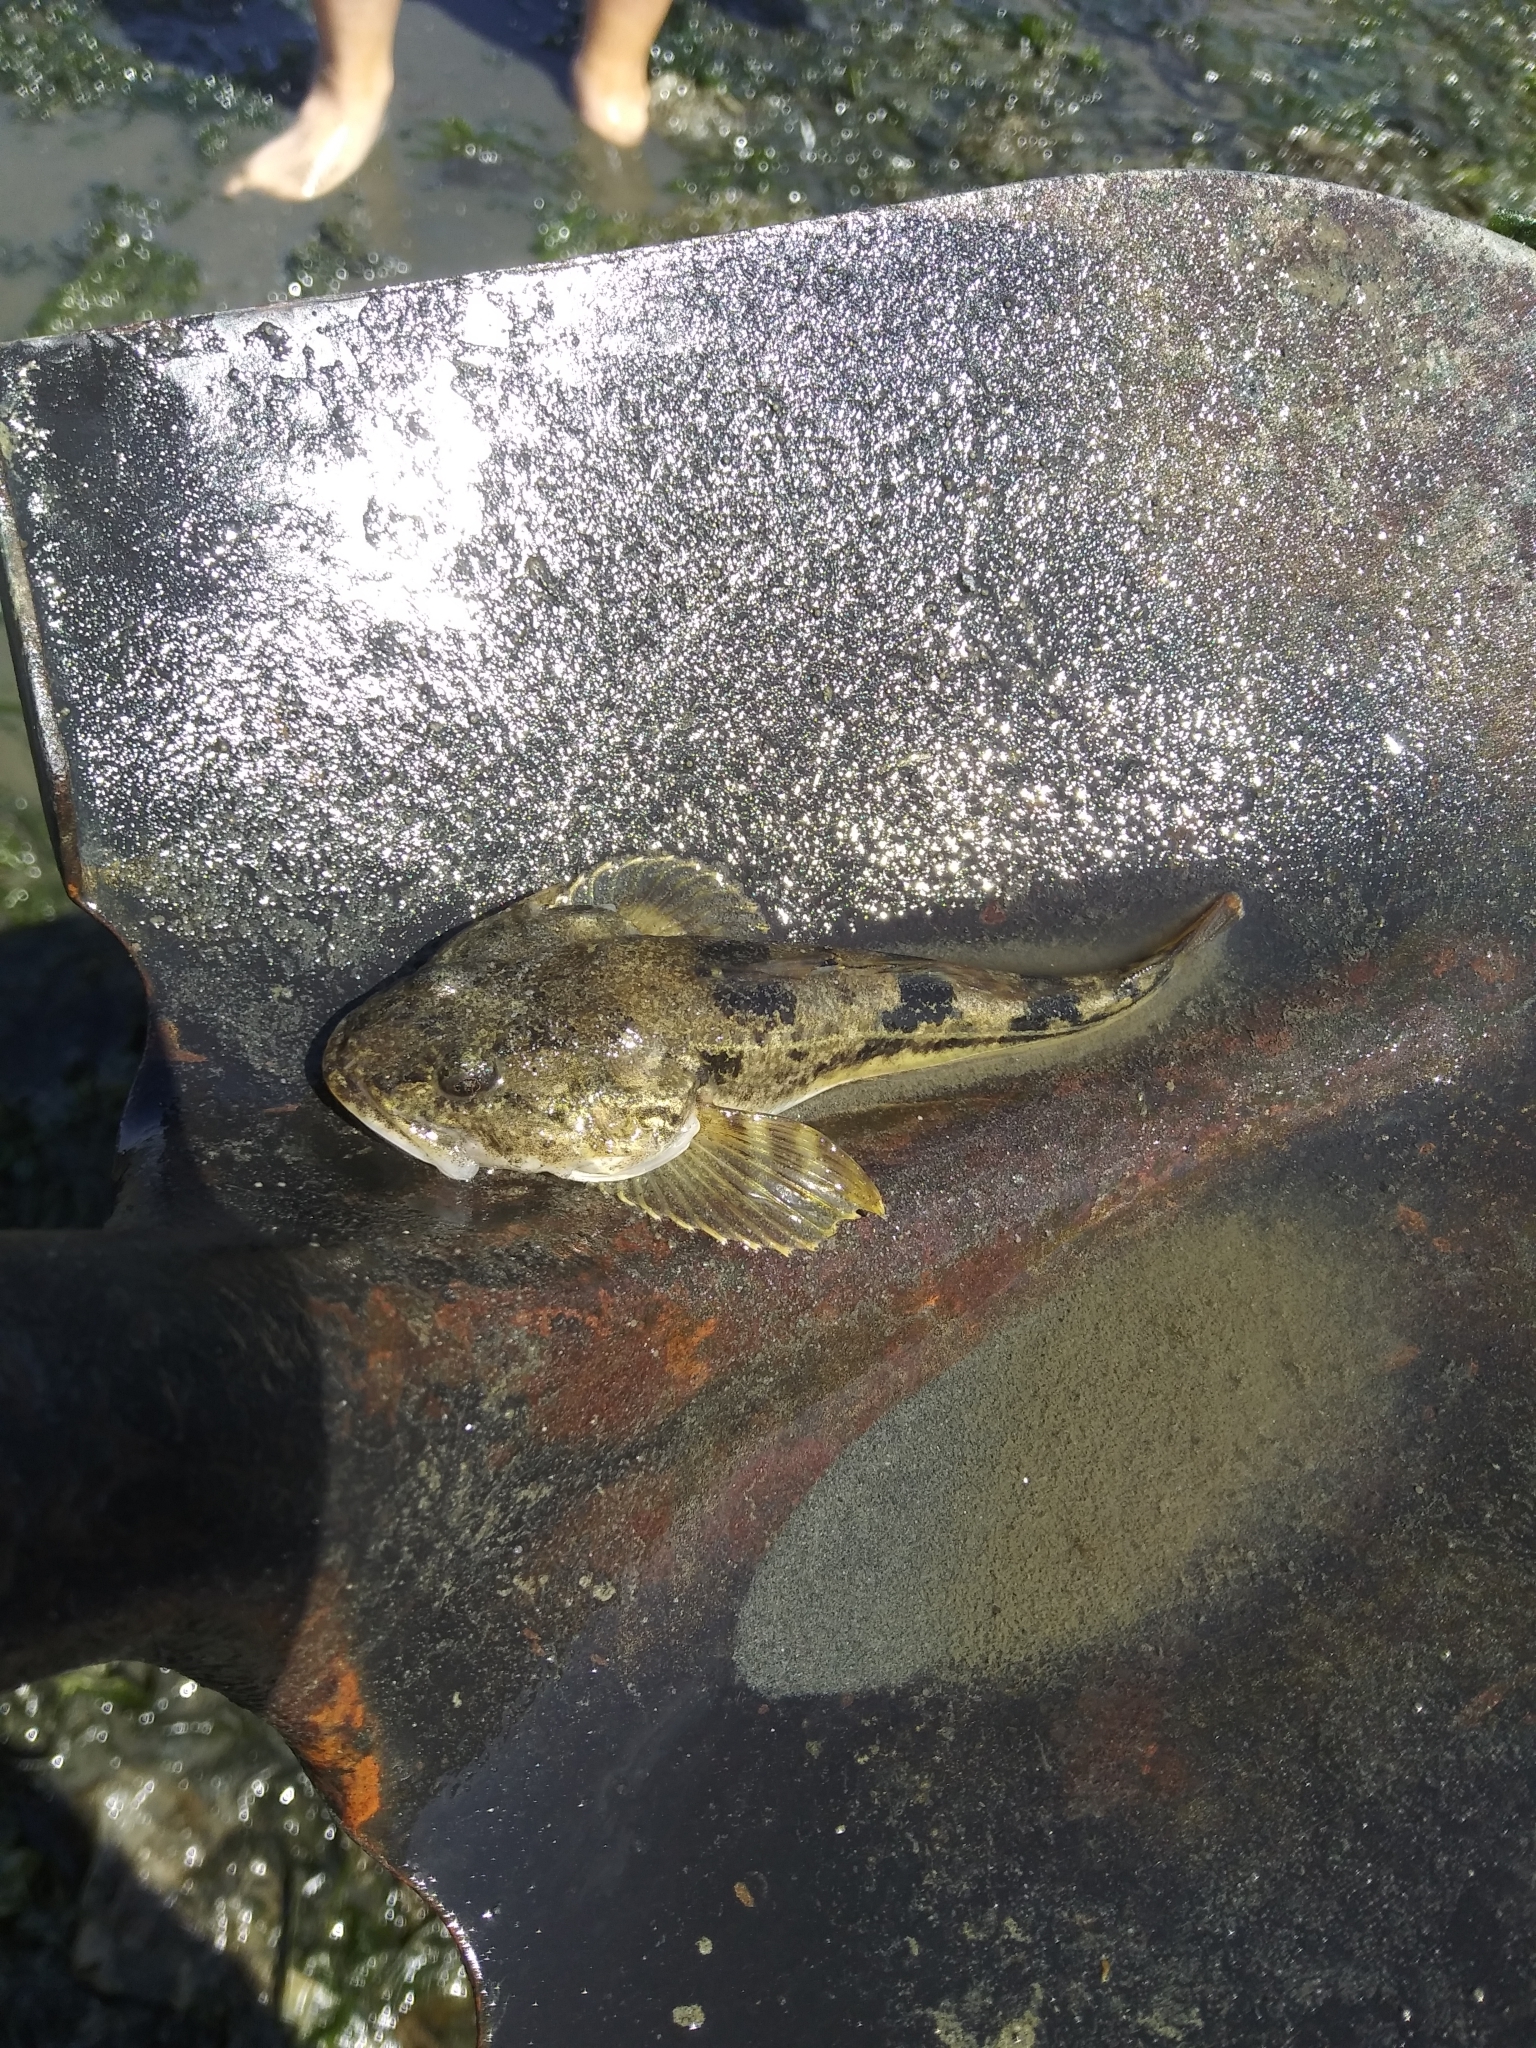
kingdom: Animalia
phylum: Chordata
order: Scorpaeniformes
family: Cottidae
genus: Leptocottus
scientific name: Leptocottus armatus
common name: Pacific staghorn sculpin
